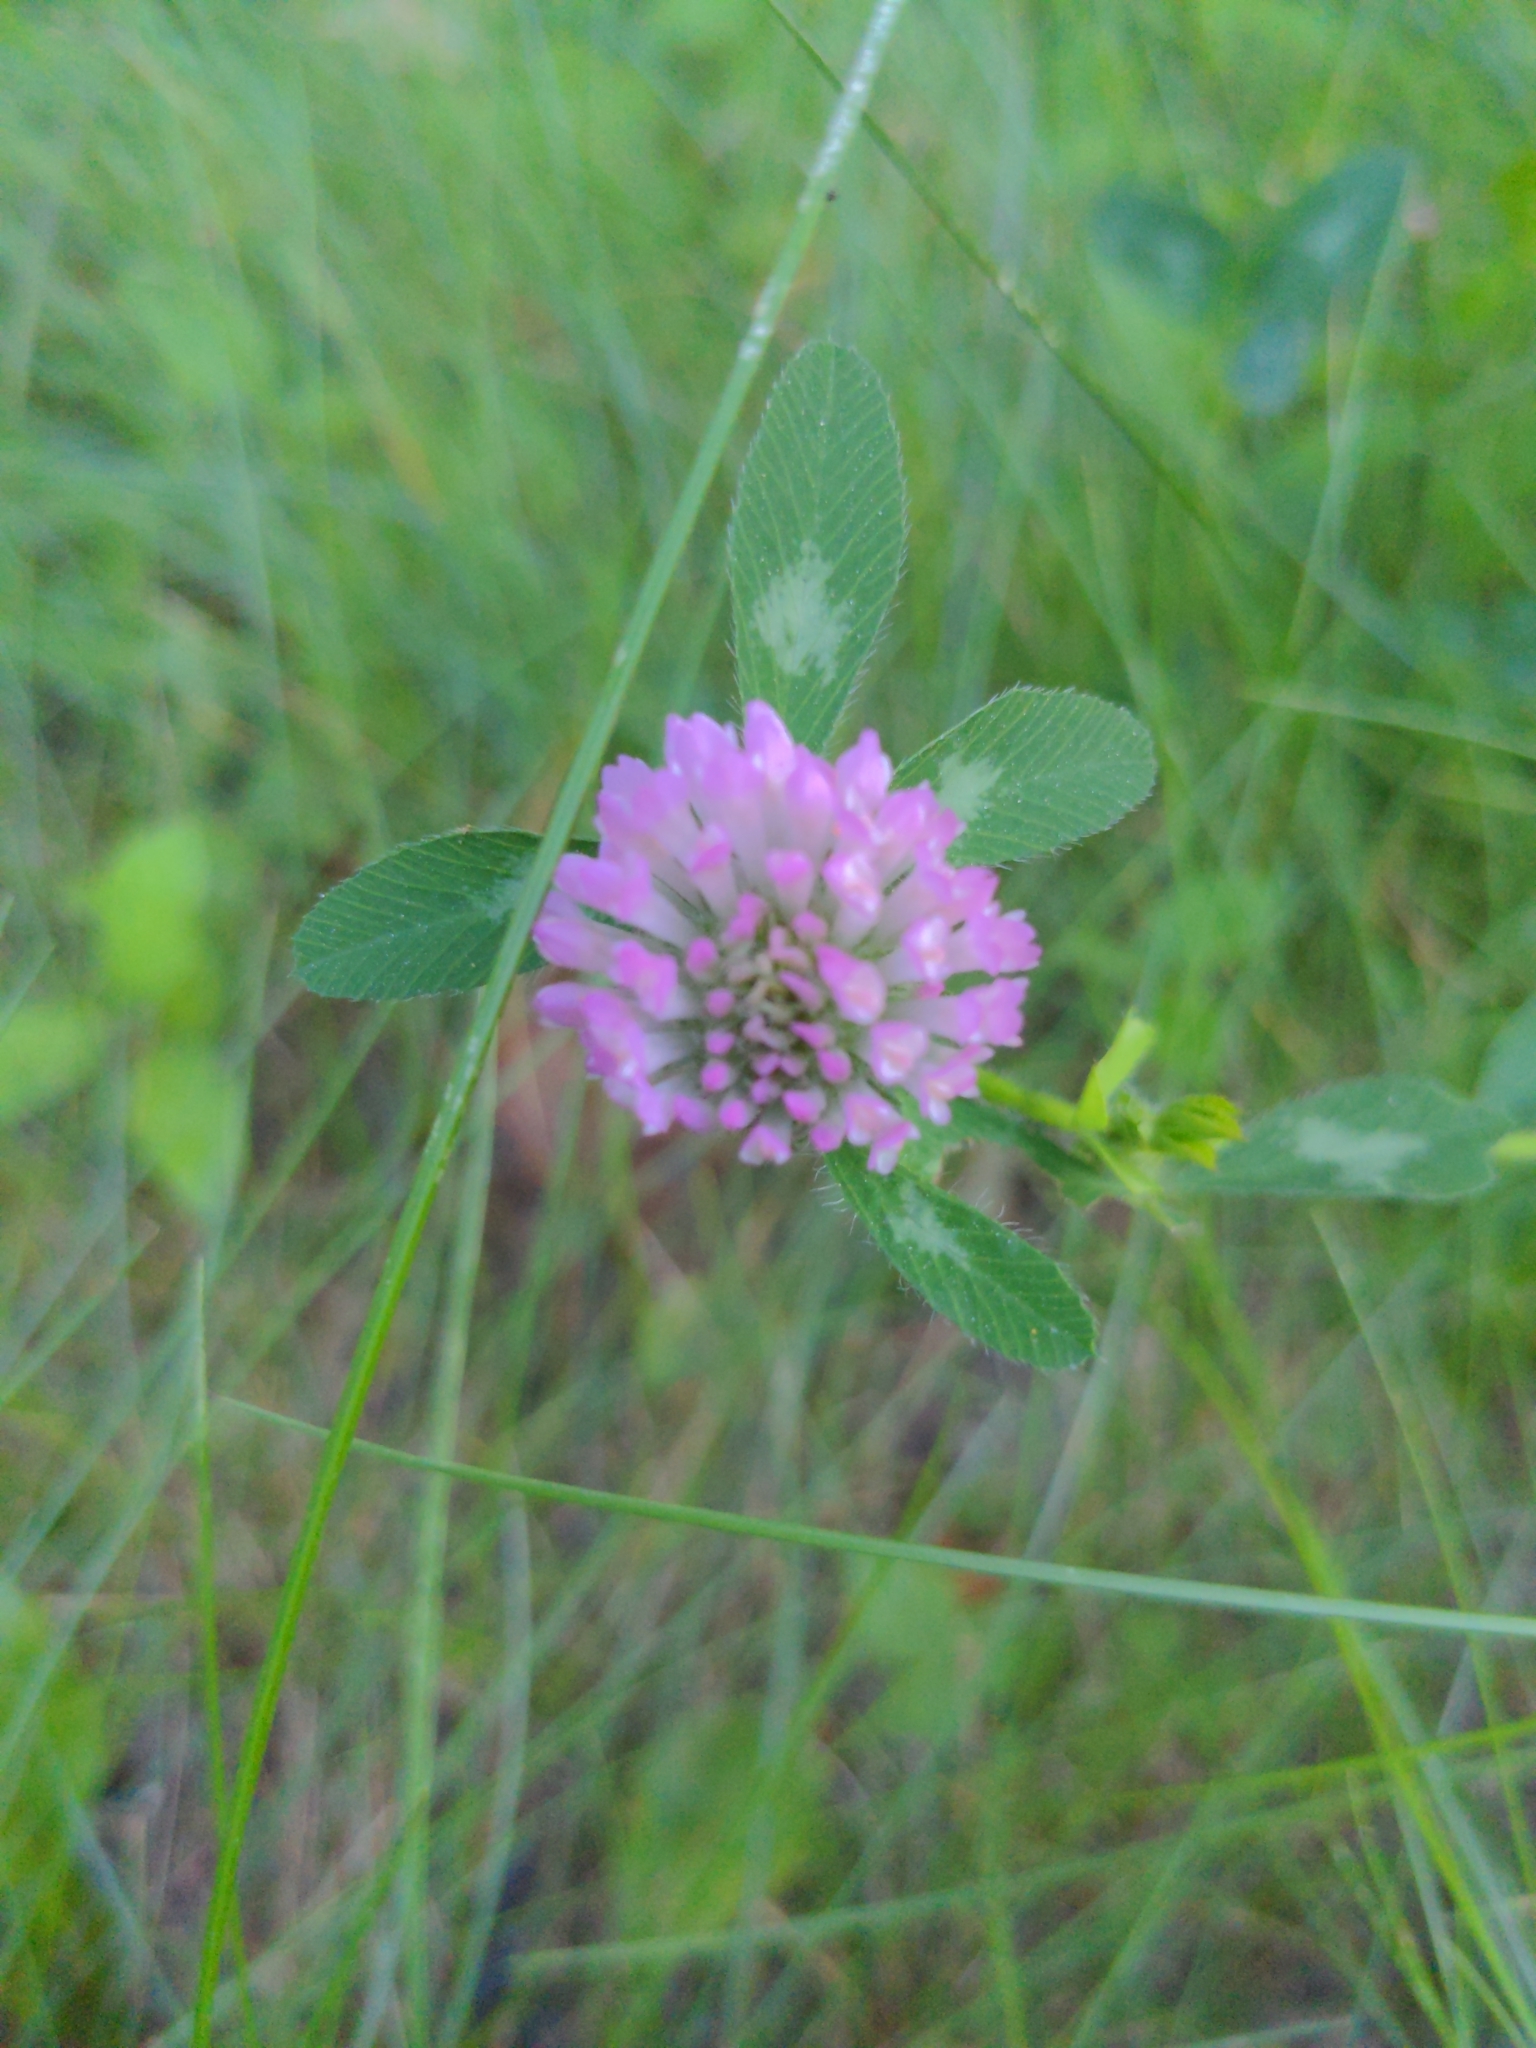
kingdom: Plantae
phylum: Tracheophyta
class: Magnoliopsida
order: Fabales
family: Fabaceae
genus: Trifolium
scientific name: Trifolium pratense
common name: Red clover
